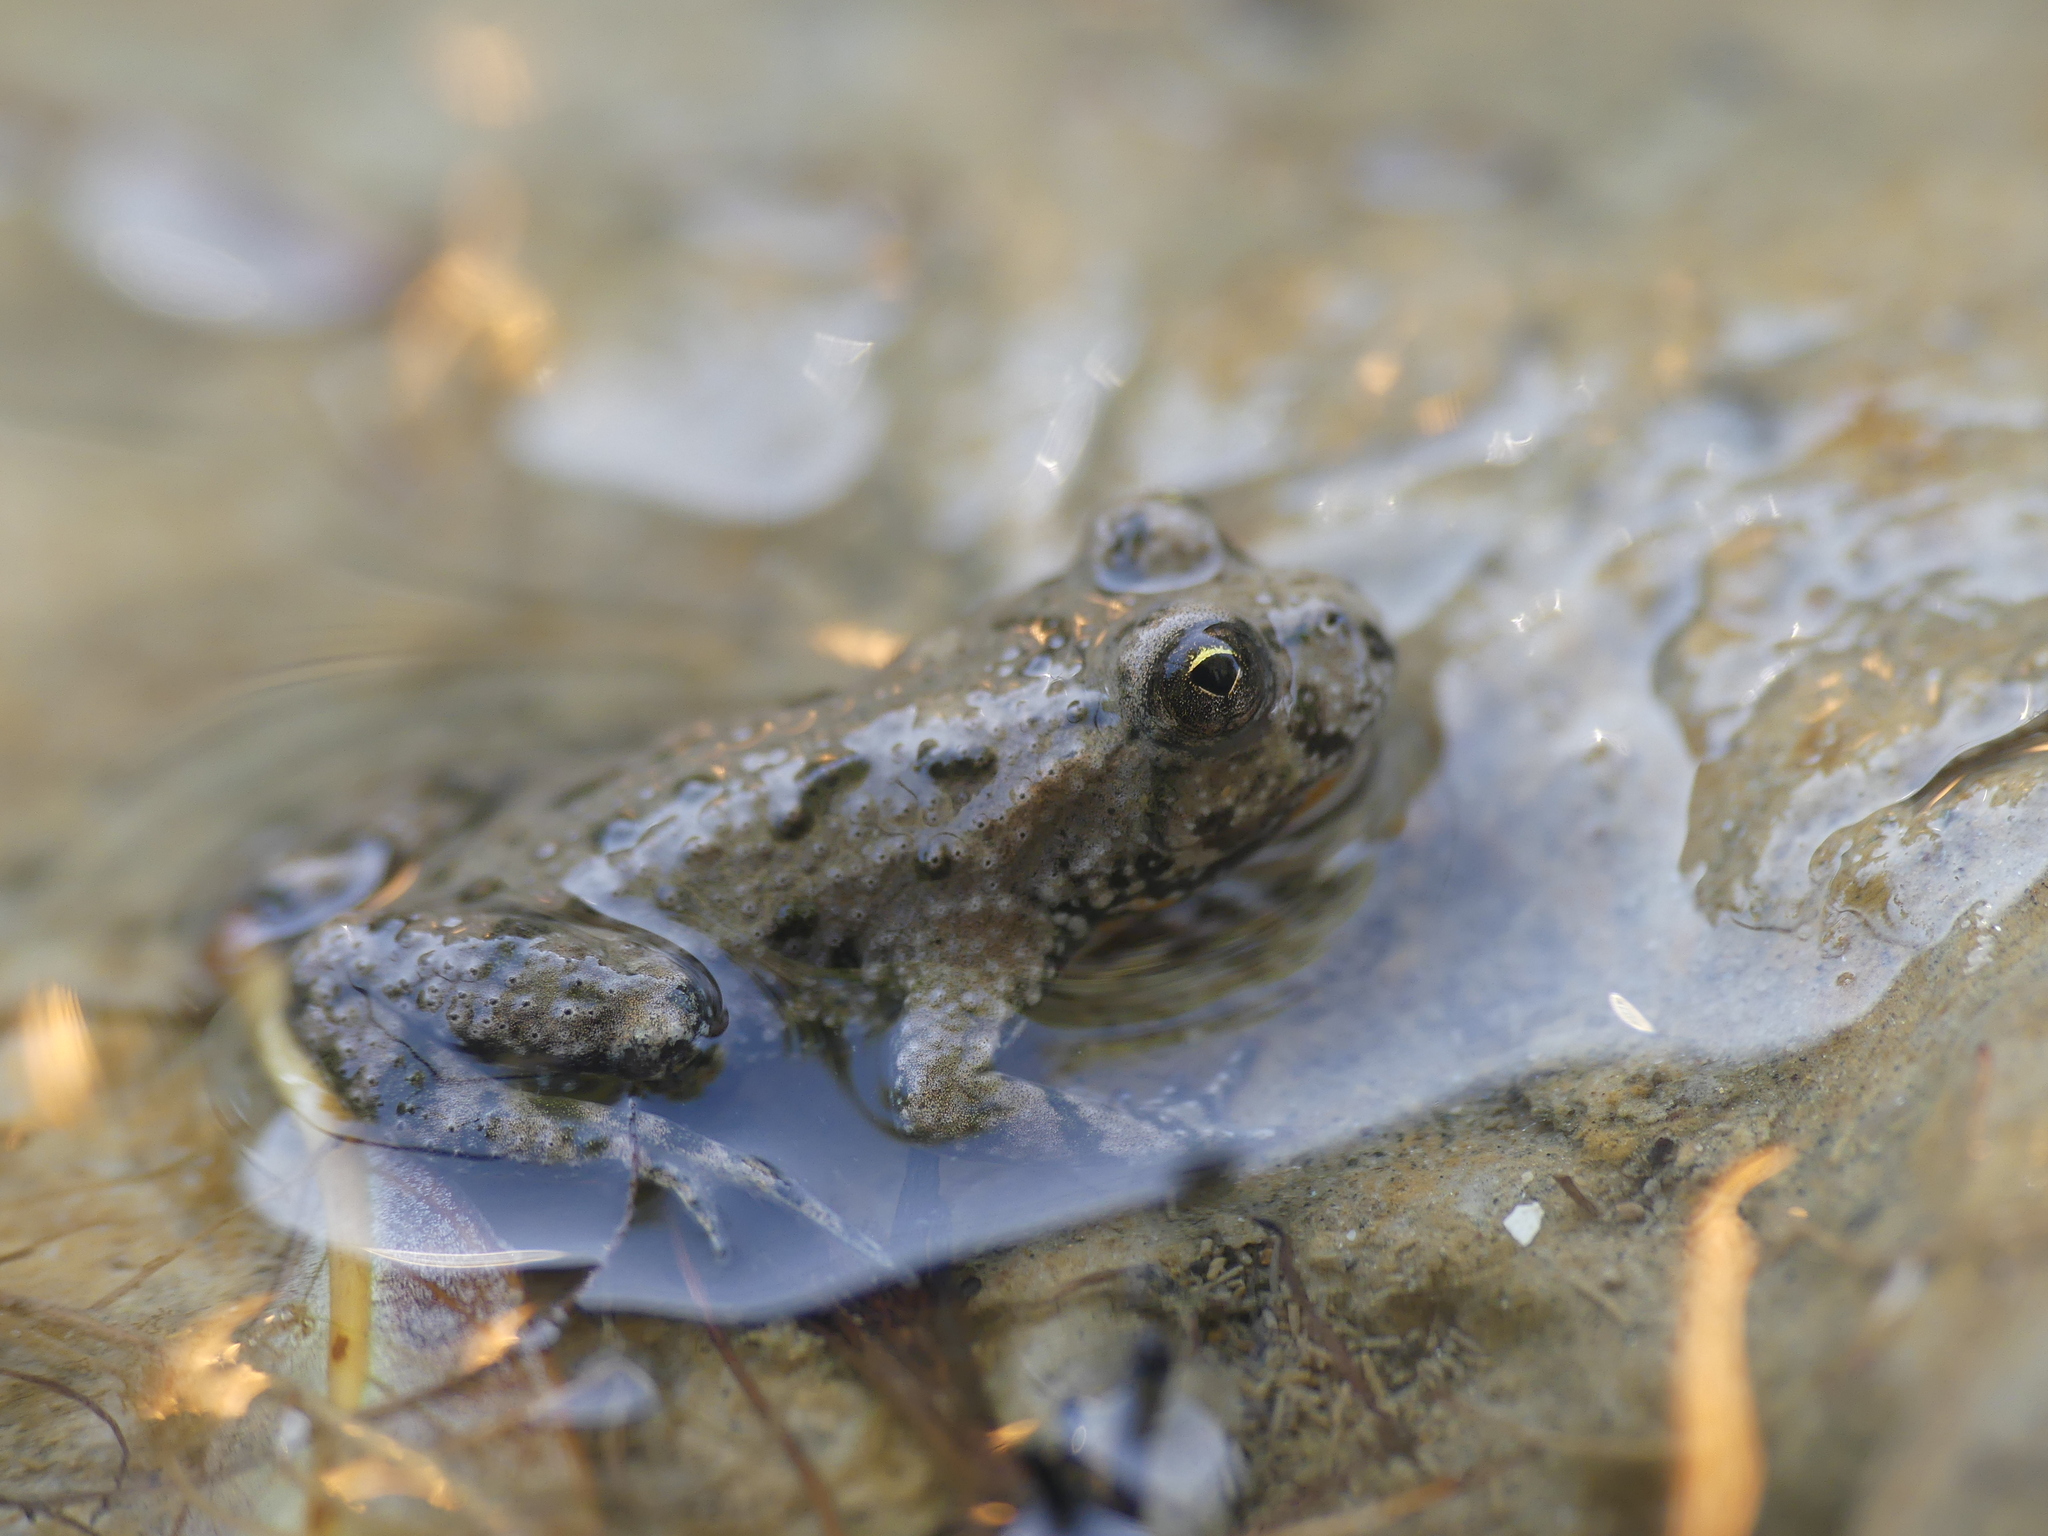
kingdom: Animalia
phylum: Chordata
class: Amphibia
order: Anura
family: Bombinatoridae
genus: Bombina
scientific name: Bombina bombina
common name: Fire-bellied toad
